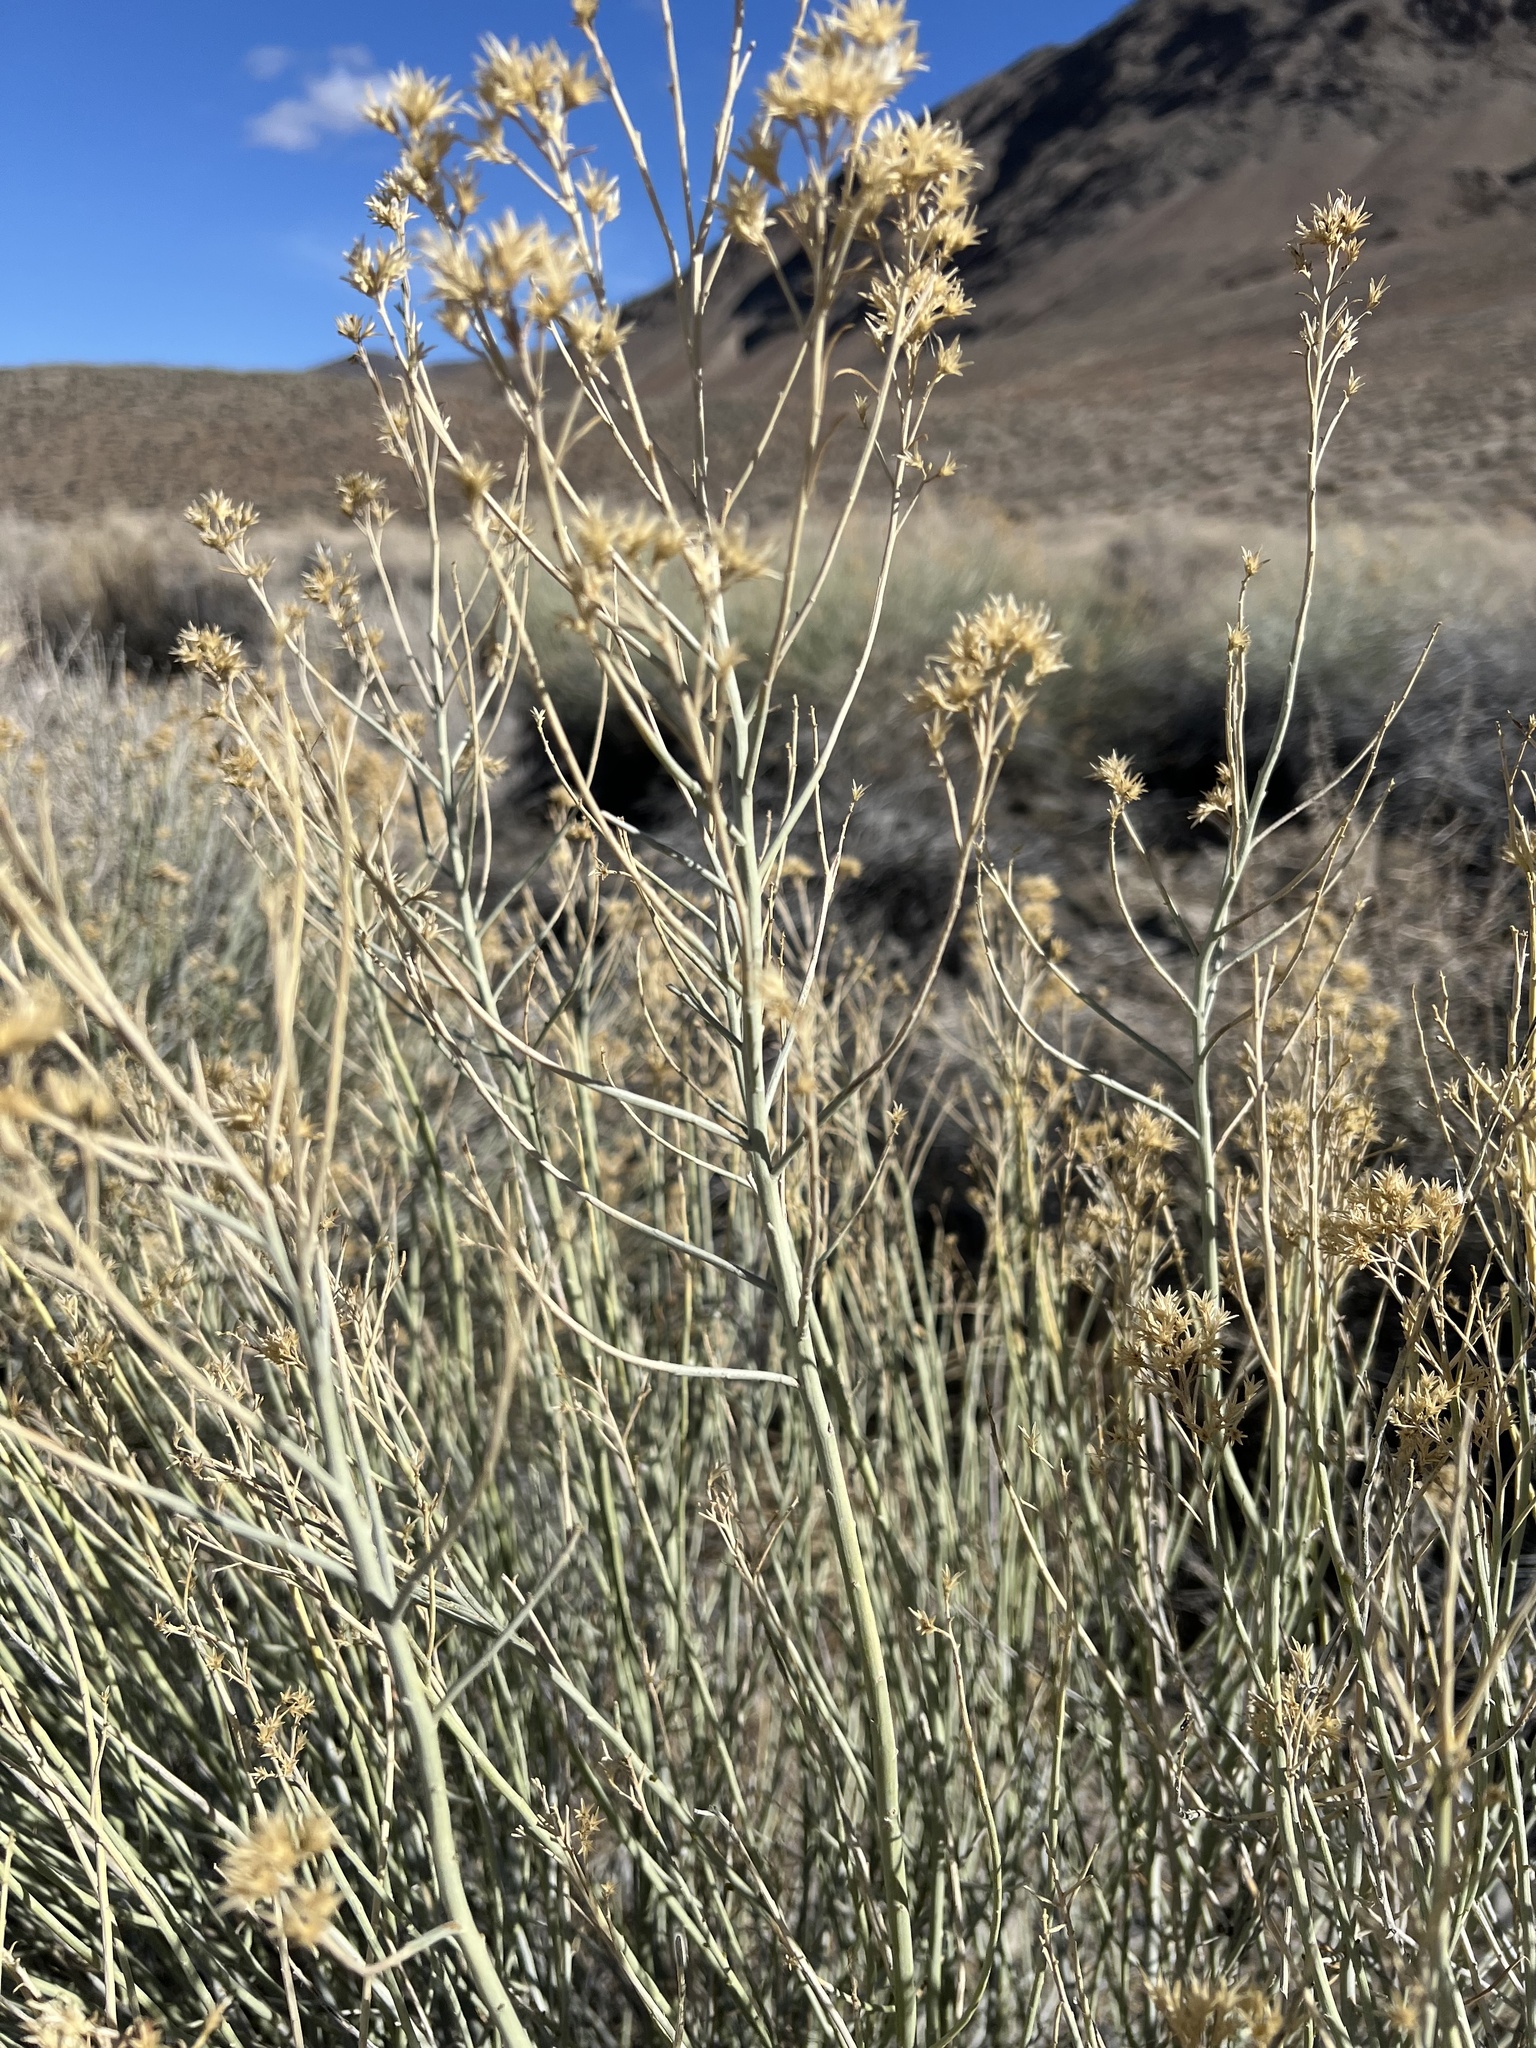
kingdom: Plantae
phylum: Tracheophyta
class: Magnoliopsida
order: Asterales
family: Asteraceae
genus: Ericameria
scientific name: Ericameria nauseosa
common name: Rubber rabbitbrush
